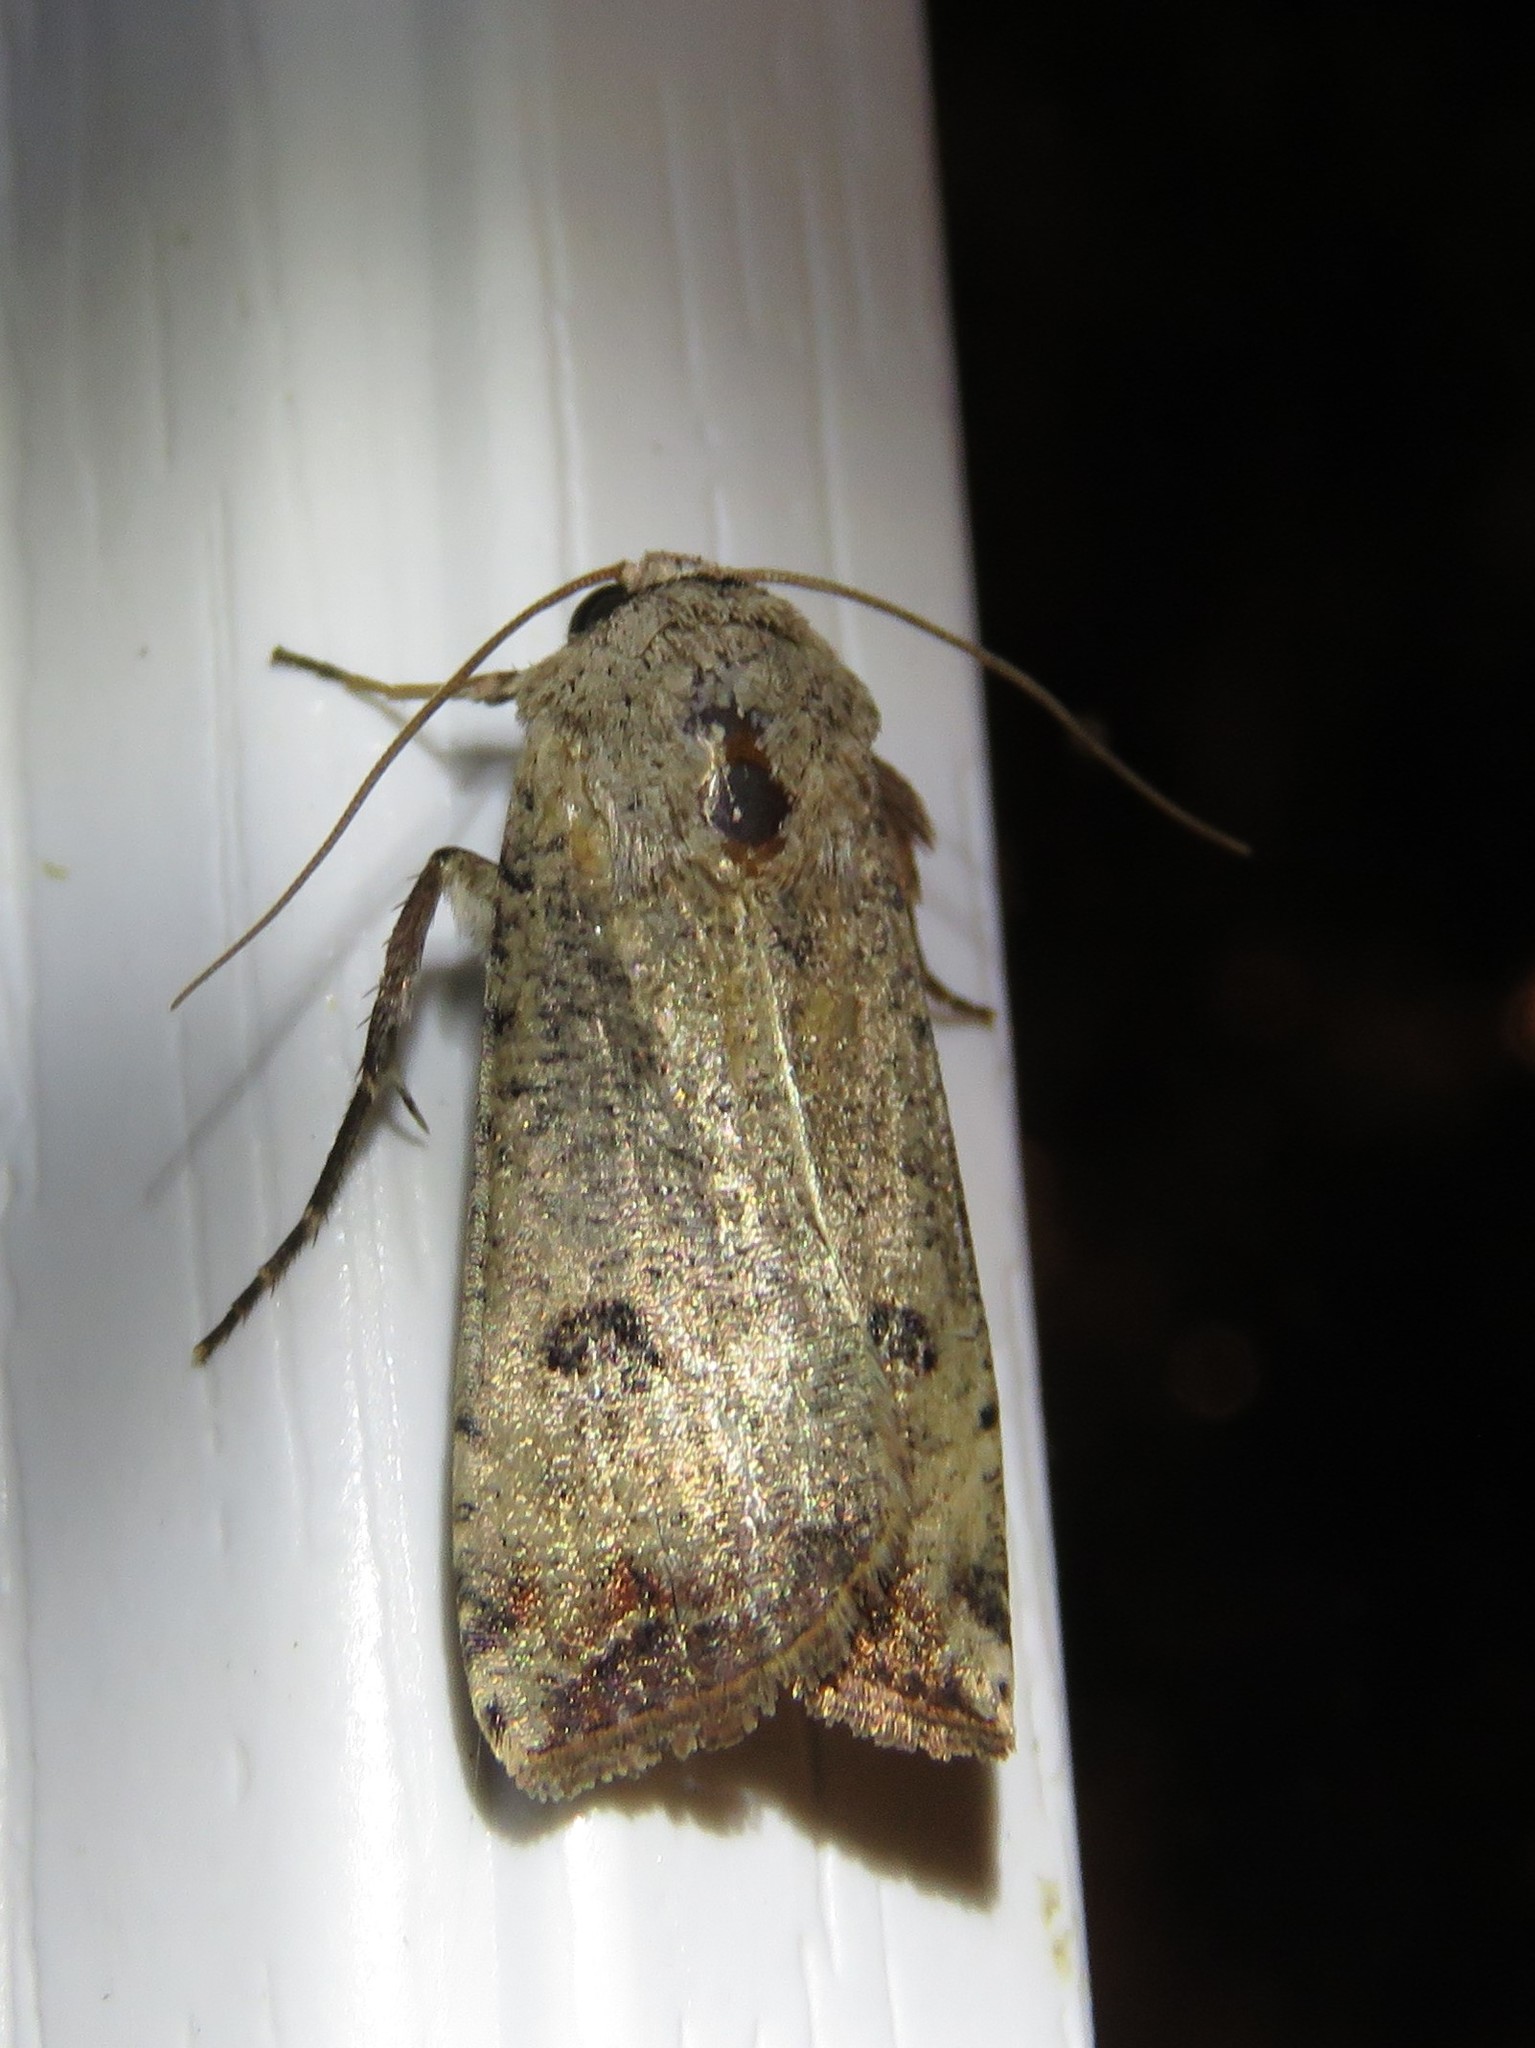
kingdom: Animalia
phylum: Arthropoda
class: Insecta
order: Lepidoptera
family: Noctuidae
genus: Anicla
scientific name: Anicla infecta
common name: Green cutworm
